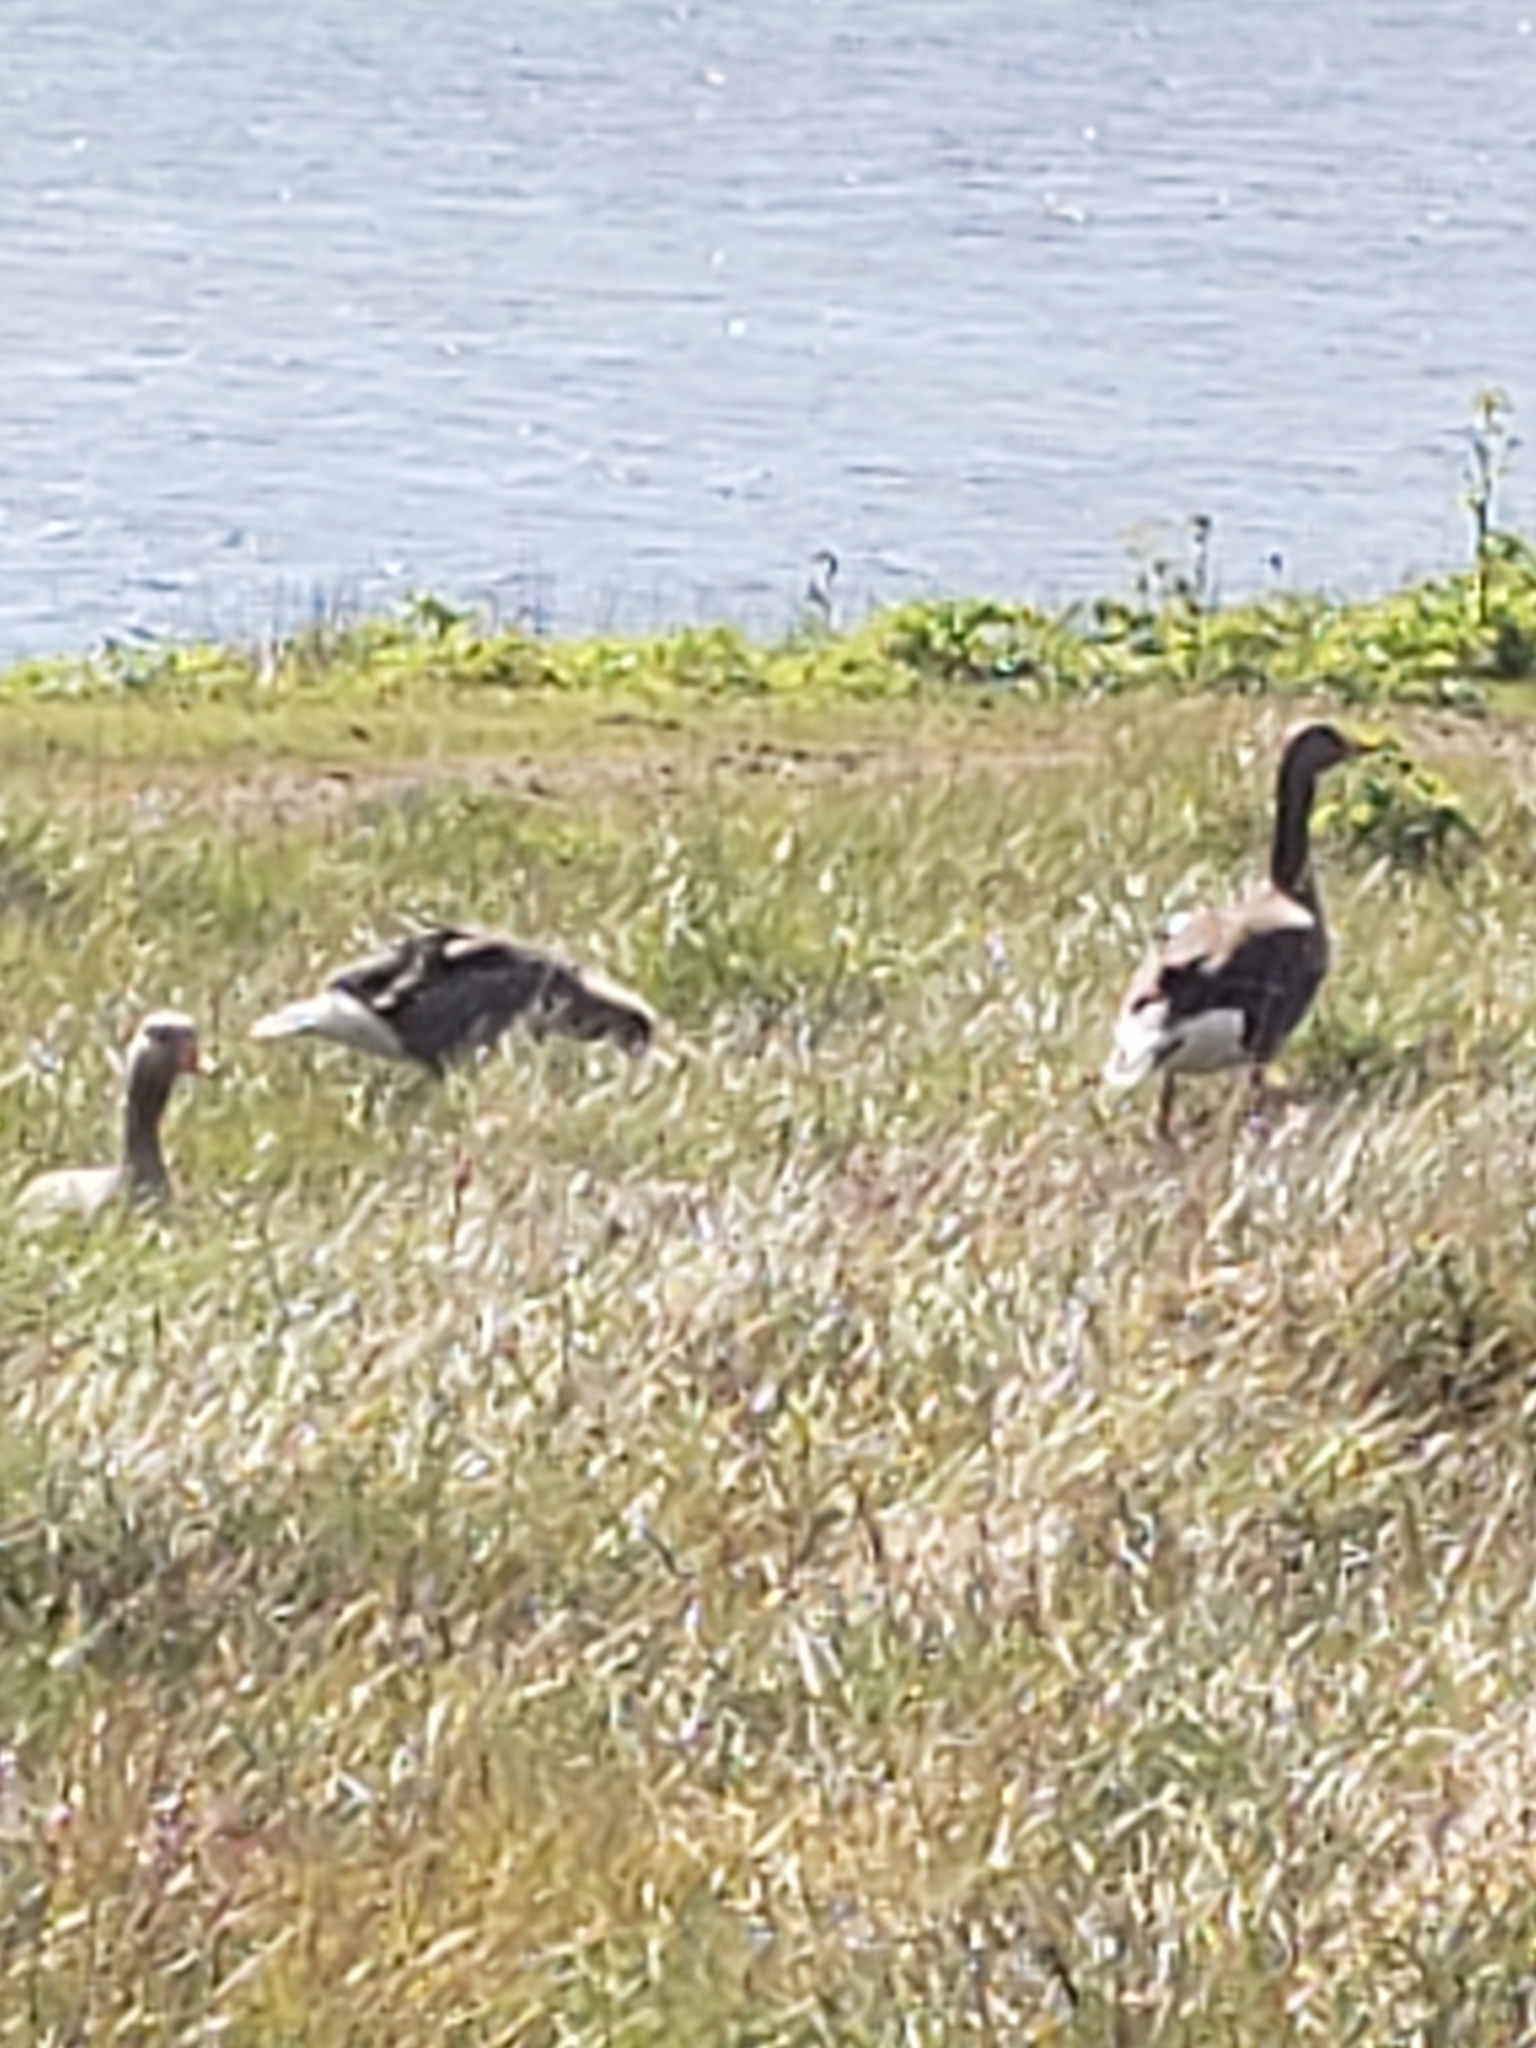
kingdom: Animalia
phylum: Chordata
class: Aves
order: Anseriformes
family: Anatidae
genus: Anser
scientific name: Anser anser
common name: Greylag goose
